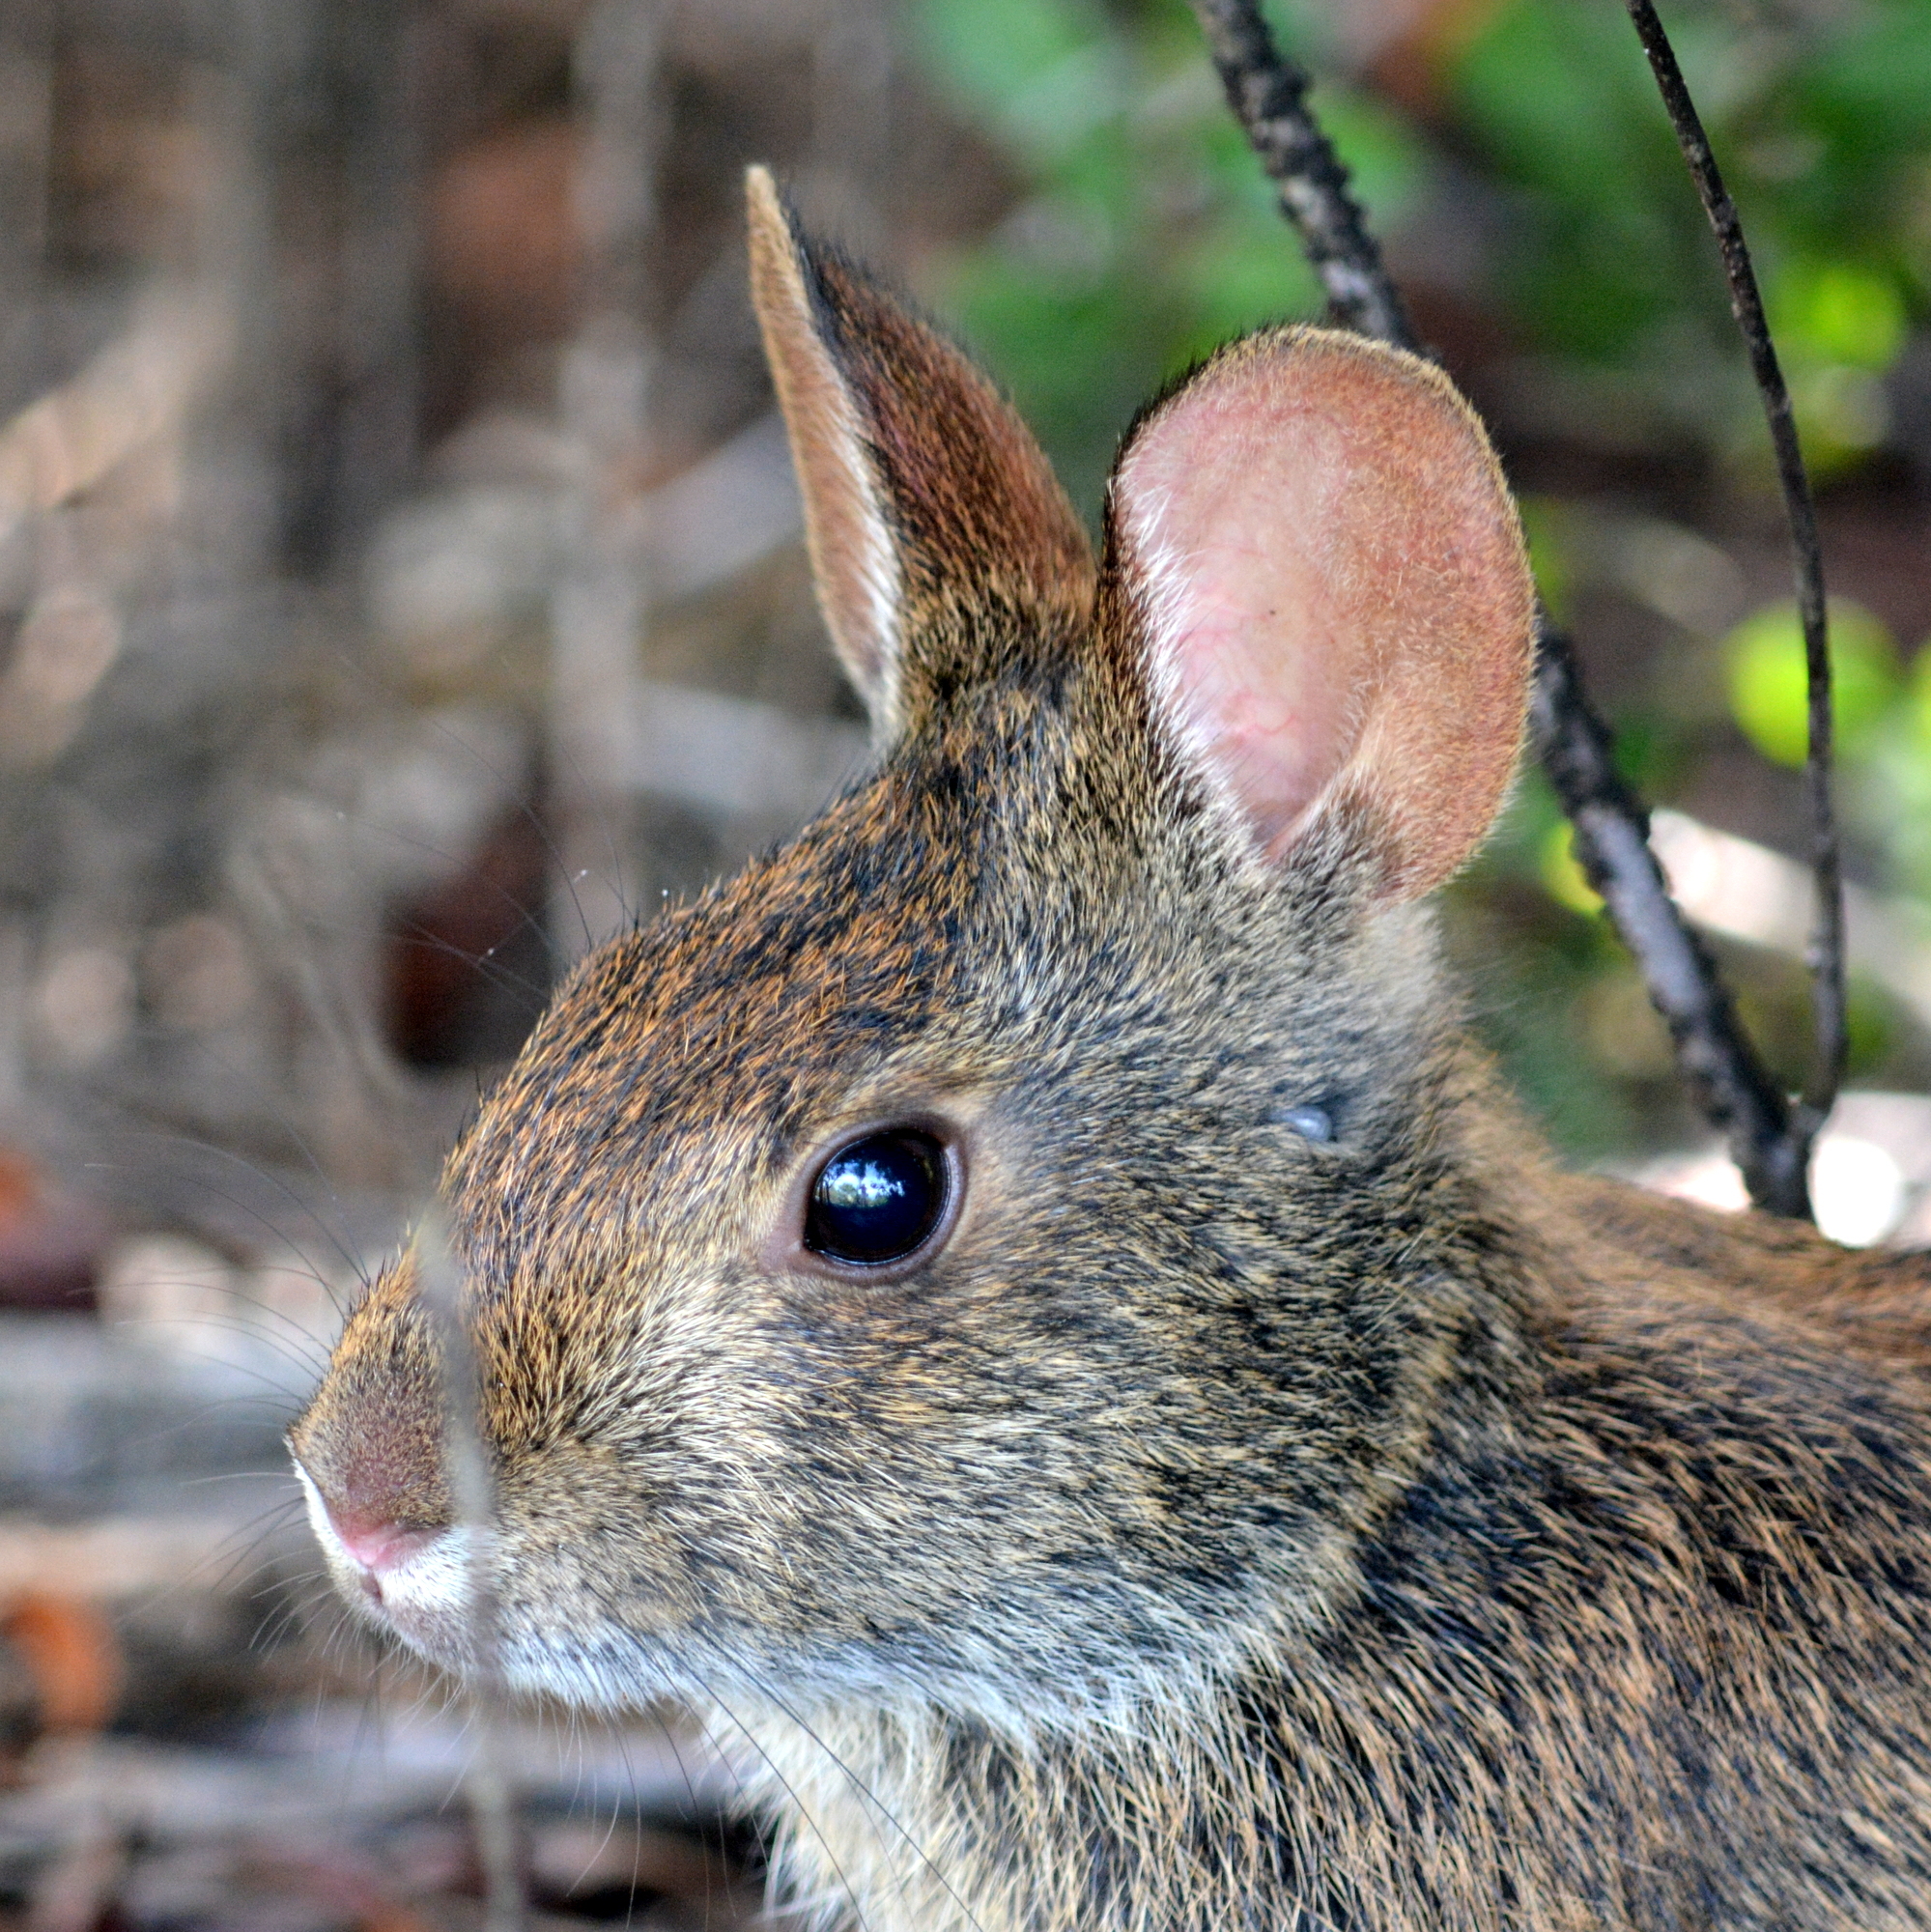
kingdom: Animalia
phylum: Chordata
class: Mammalia
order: Lagomorpha
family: Leporidae
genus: Sylvilagus
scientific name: Sylvilagus palustris
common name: Marsh rabbit
